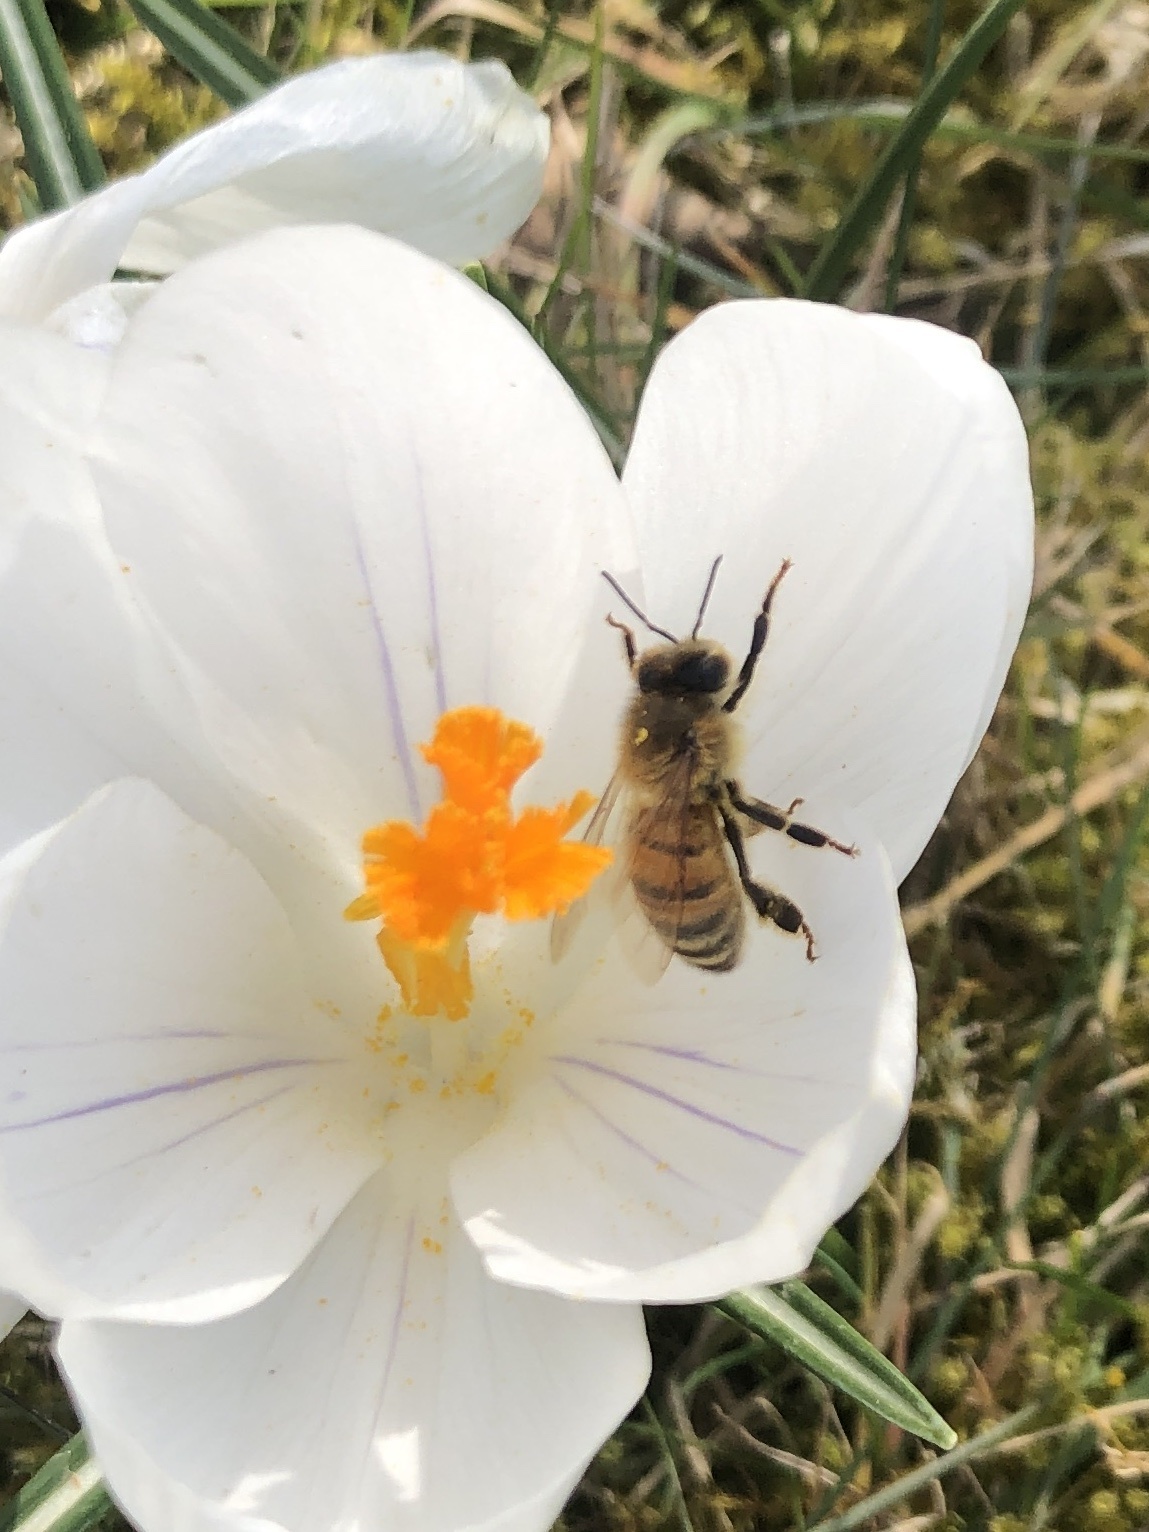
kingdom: Animalia
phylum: Arthropoda
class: Insecta
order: Hymenoptera
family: Apidae
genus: Apis
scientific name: Apis mellifera
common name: Honey bee
